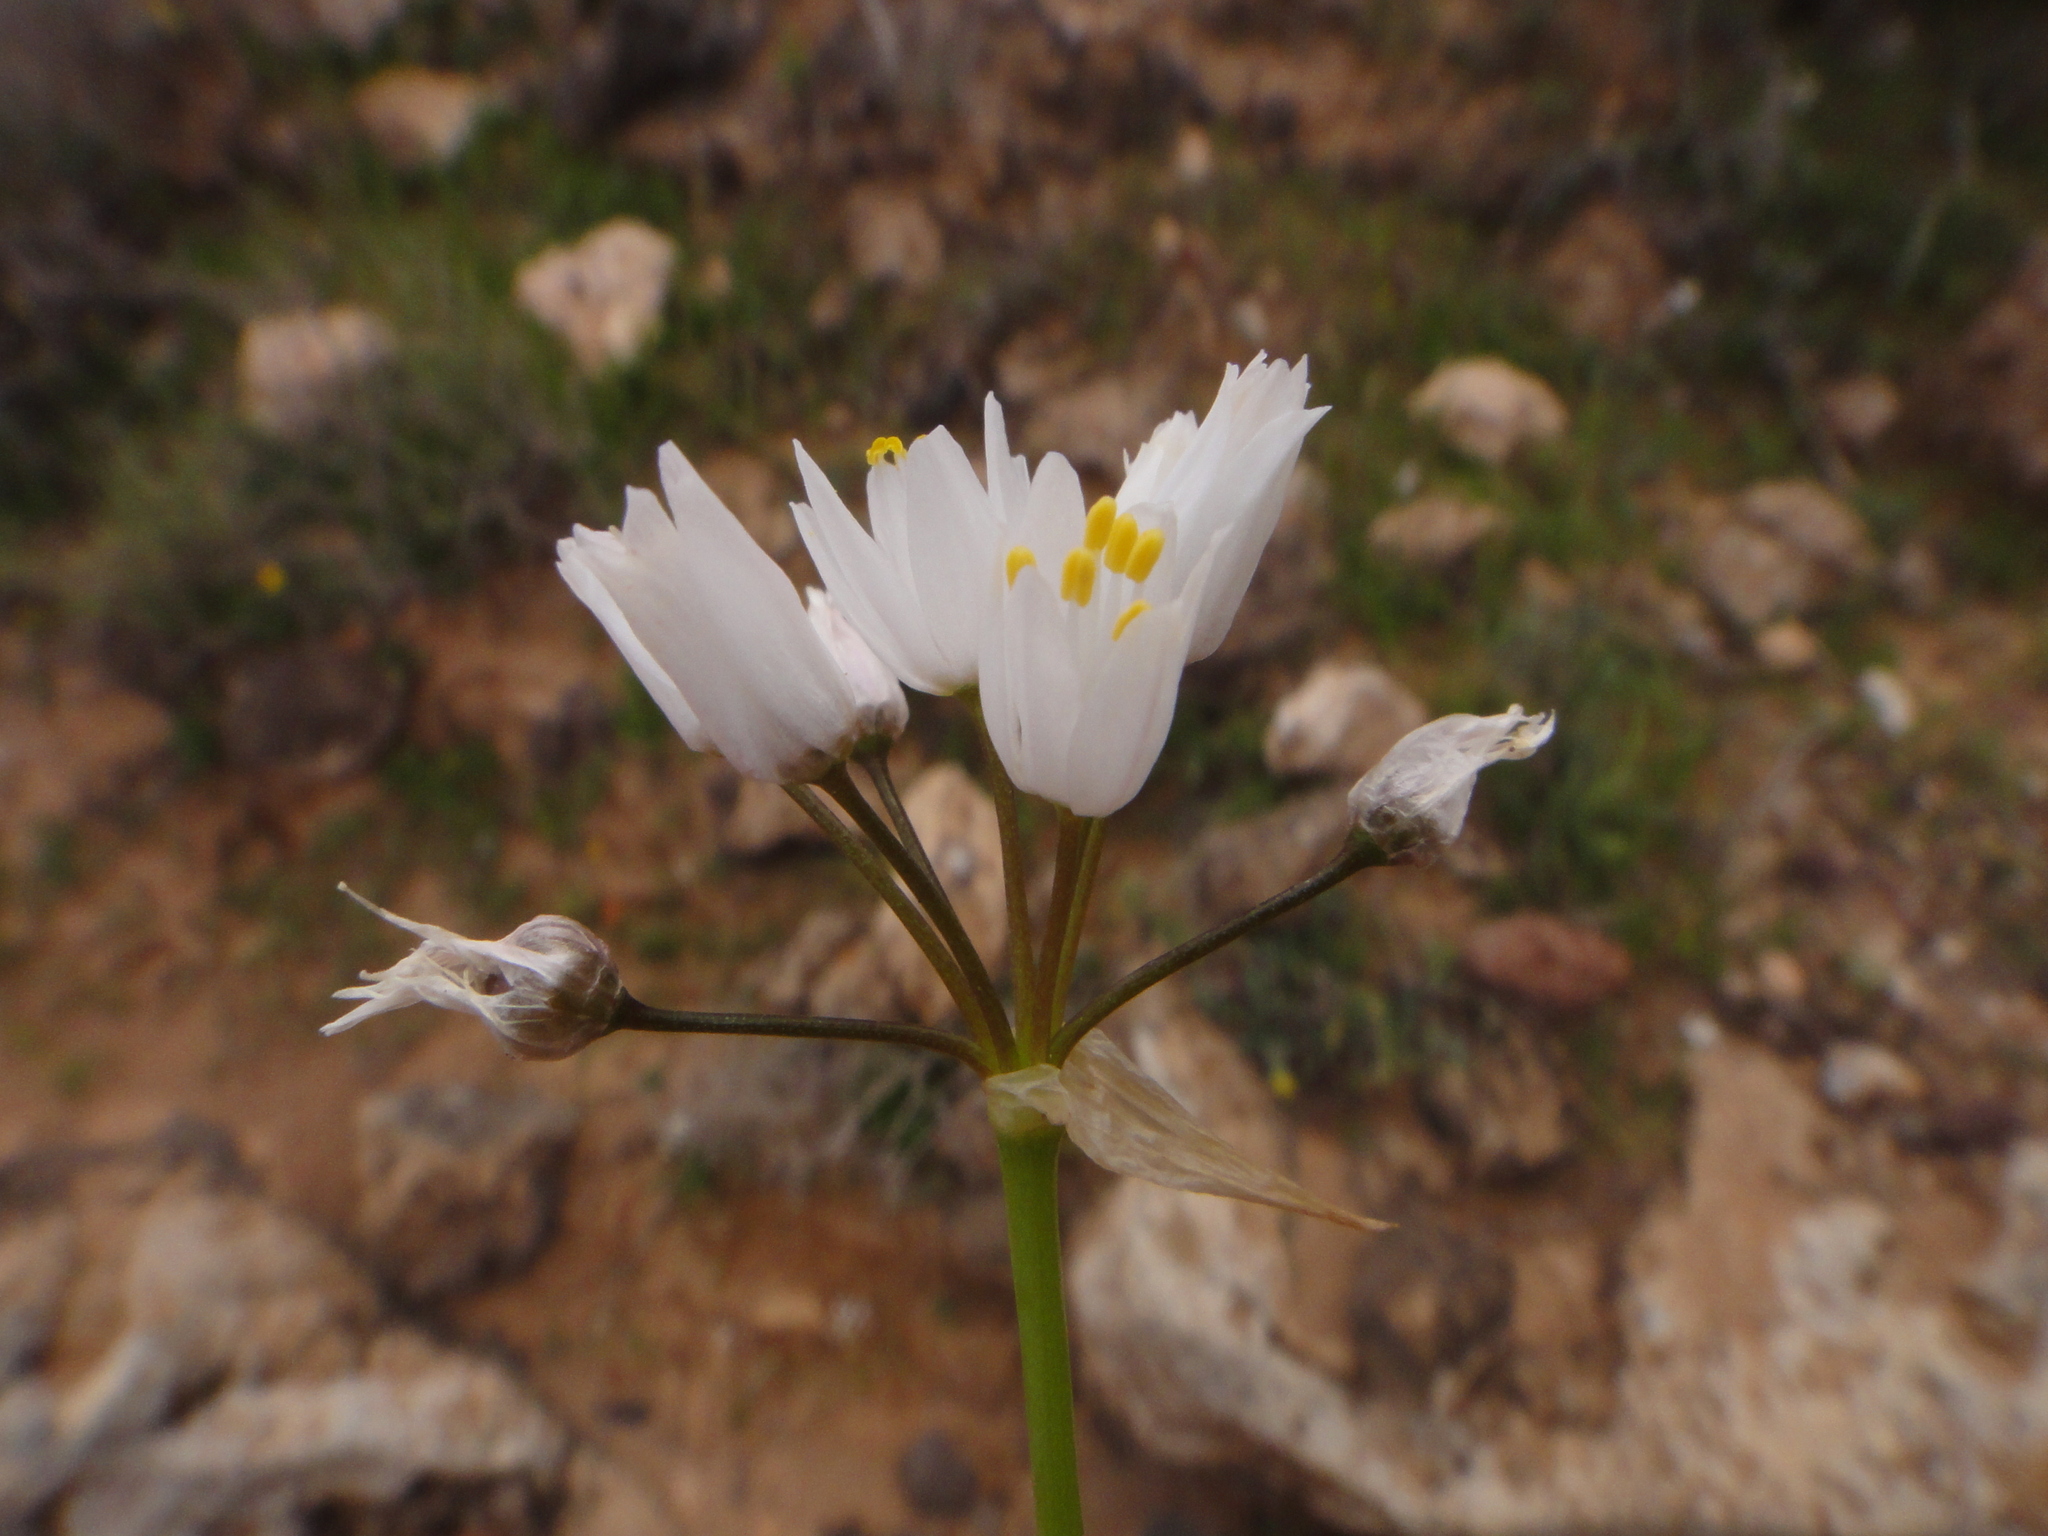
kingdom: Plantae
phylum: Tracheophyta
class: Liliopsida
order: Asparagales
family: Amaryllidaceae
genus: Allium
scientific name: Allium canariense
